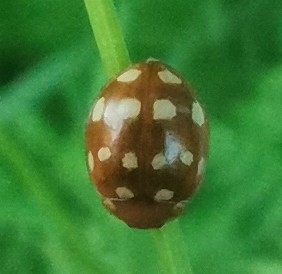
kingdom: Animalia
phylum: Arthropoda
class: Insecta
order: Coleoptera
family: Coccinellidae
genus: Calvia
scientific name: Calvia quatuordecimguttata
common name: Cream-spot ladybird
